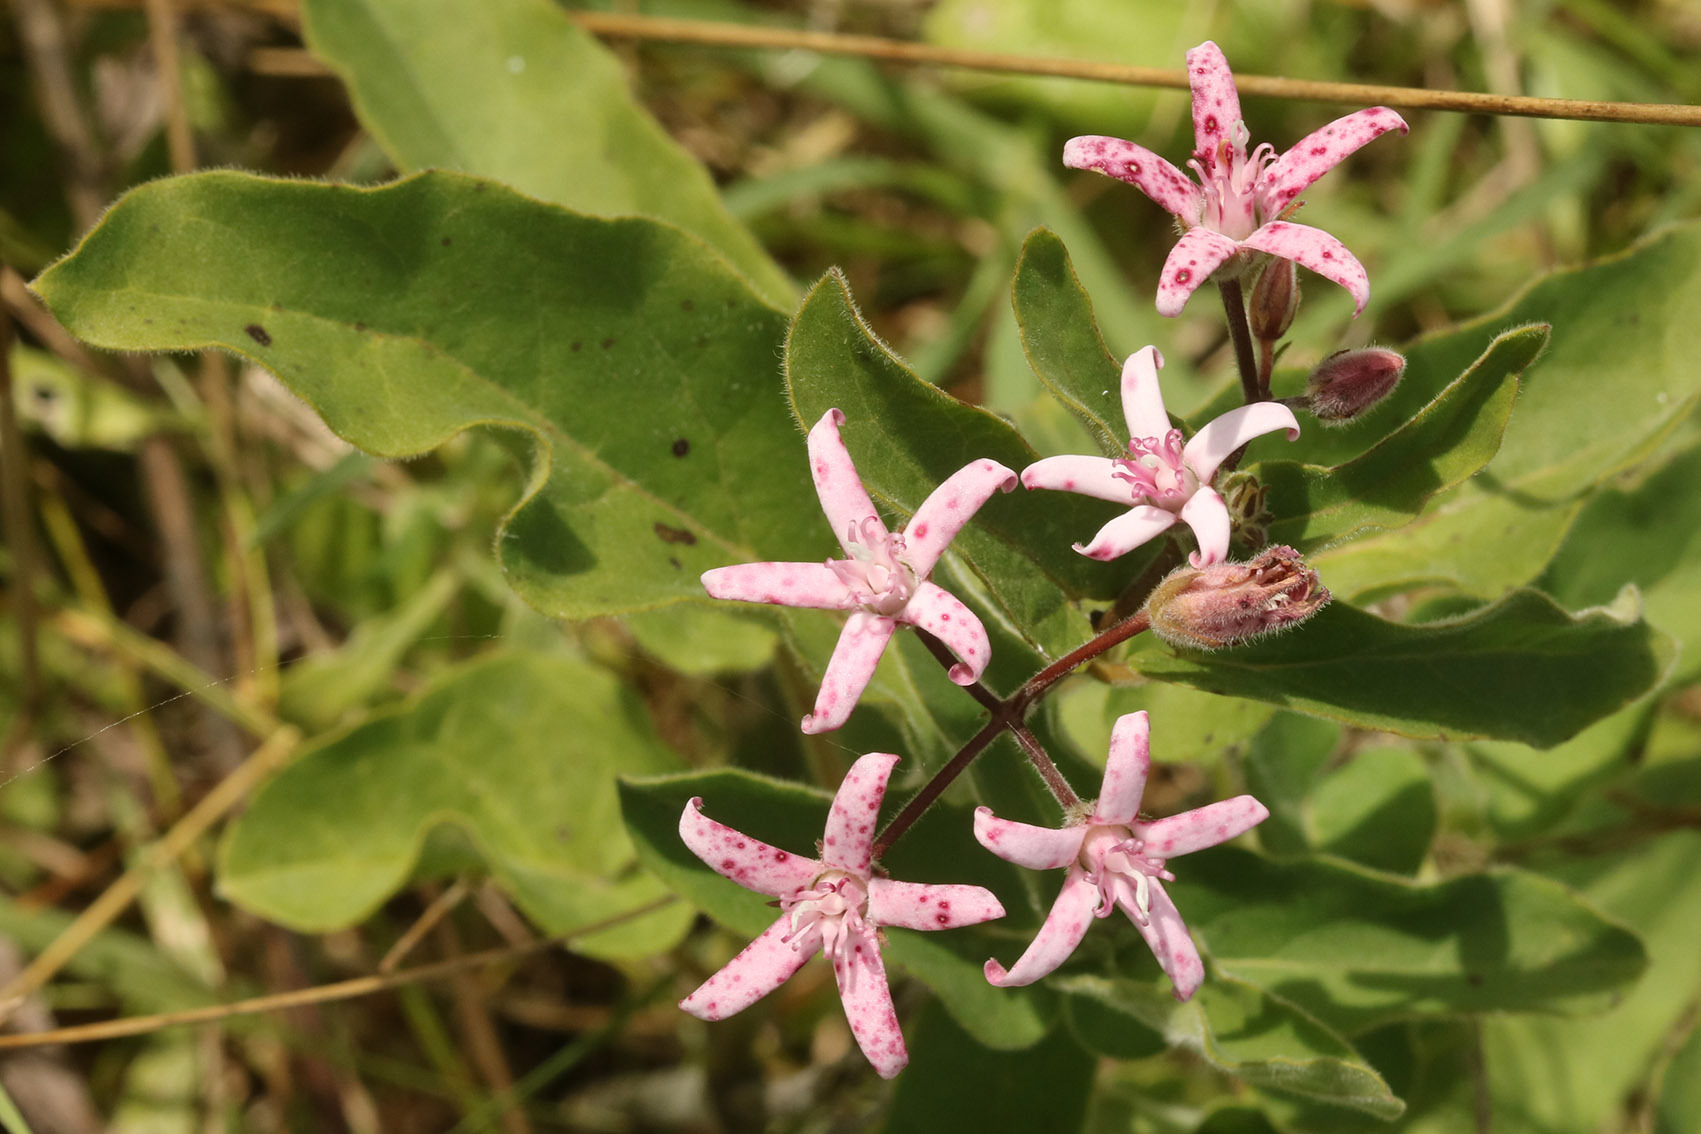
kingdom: Plantae
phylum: Tracheophyta
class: Magnoliopsida
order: Gentianales
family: Apocynaceae
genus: Oxypetalum
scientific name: Oxypetalum solanoides
